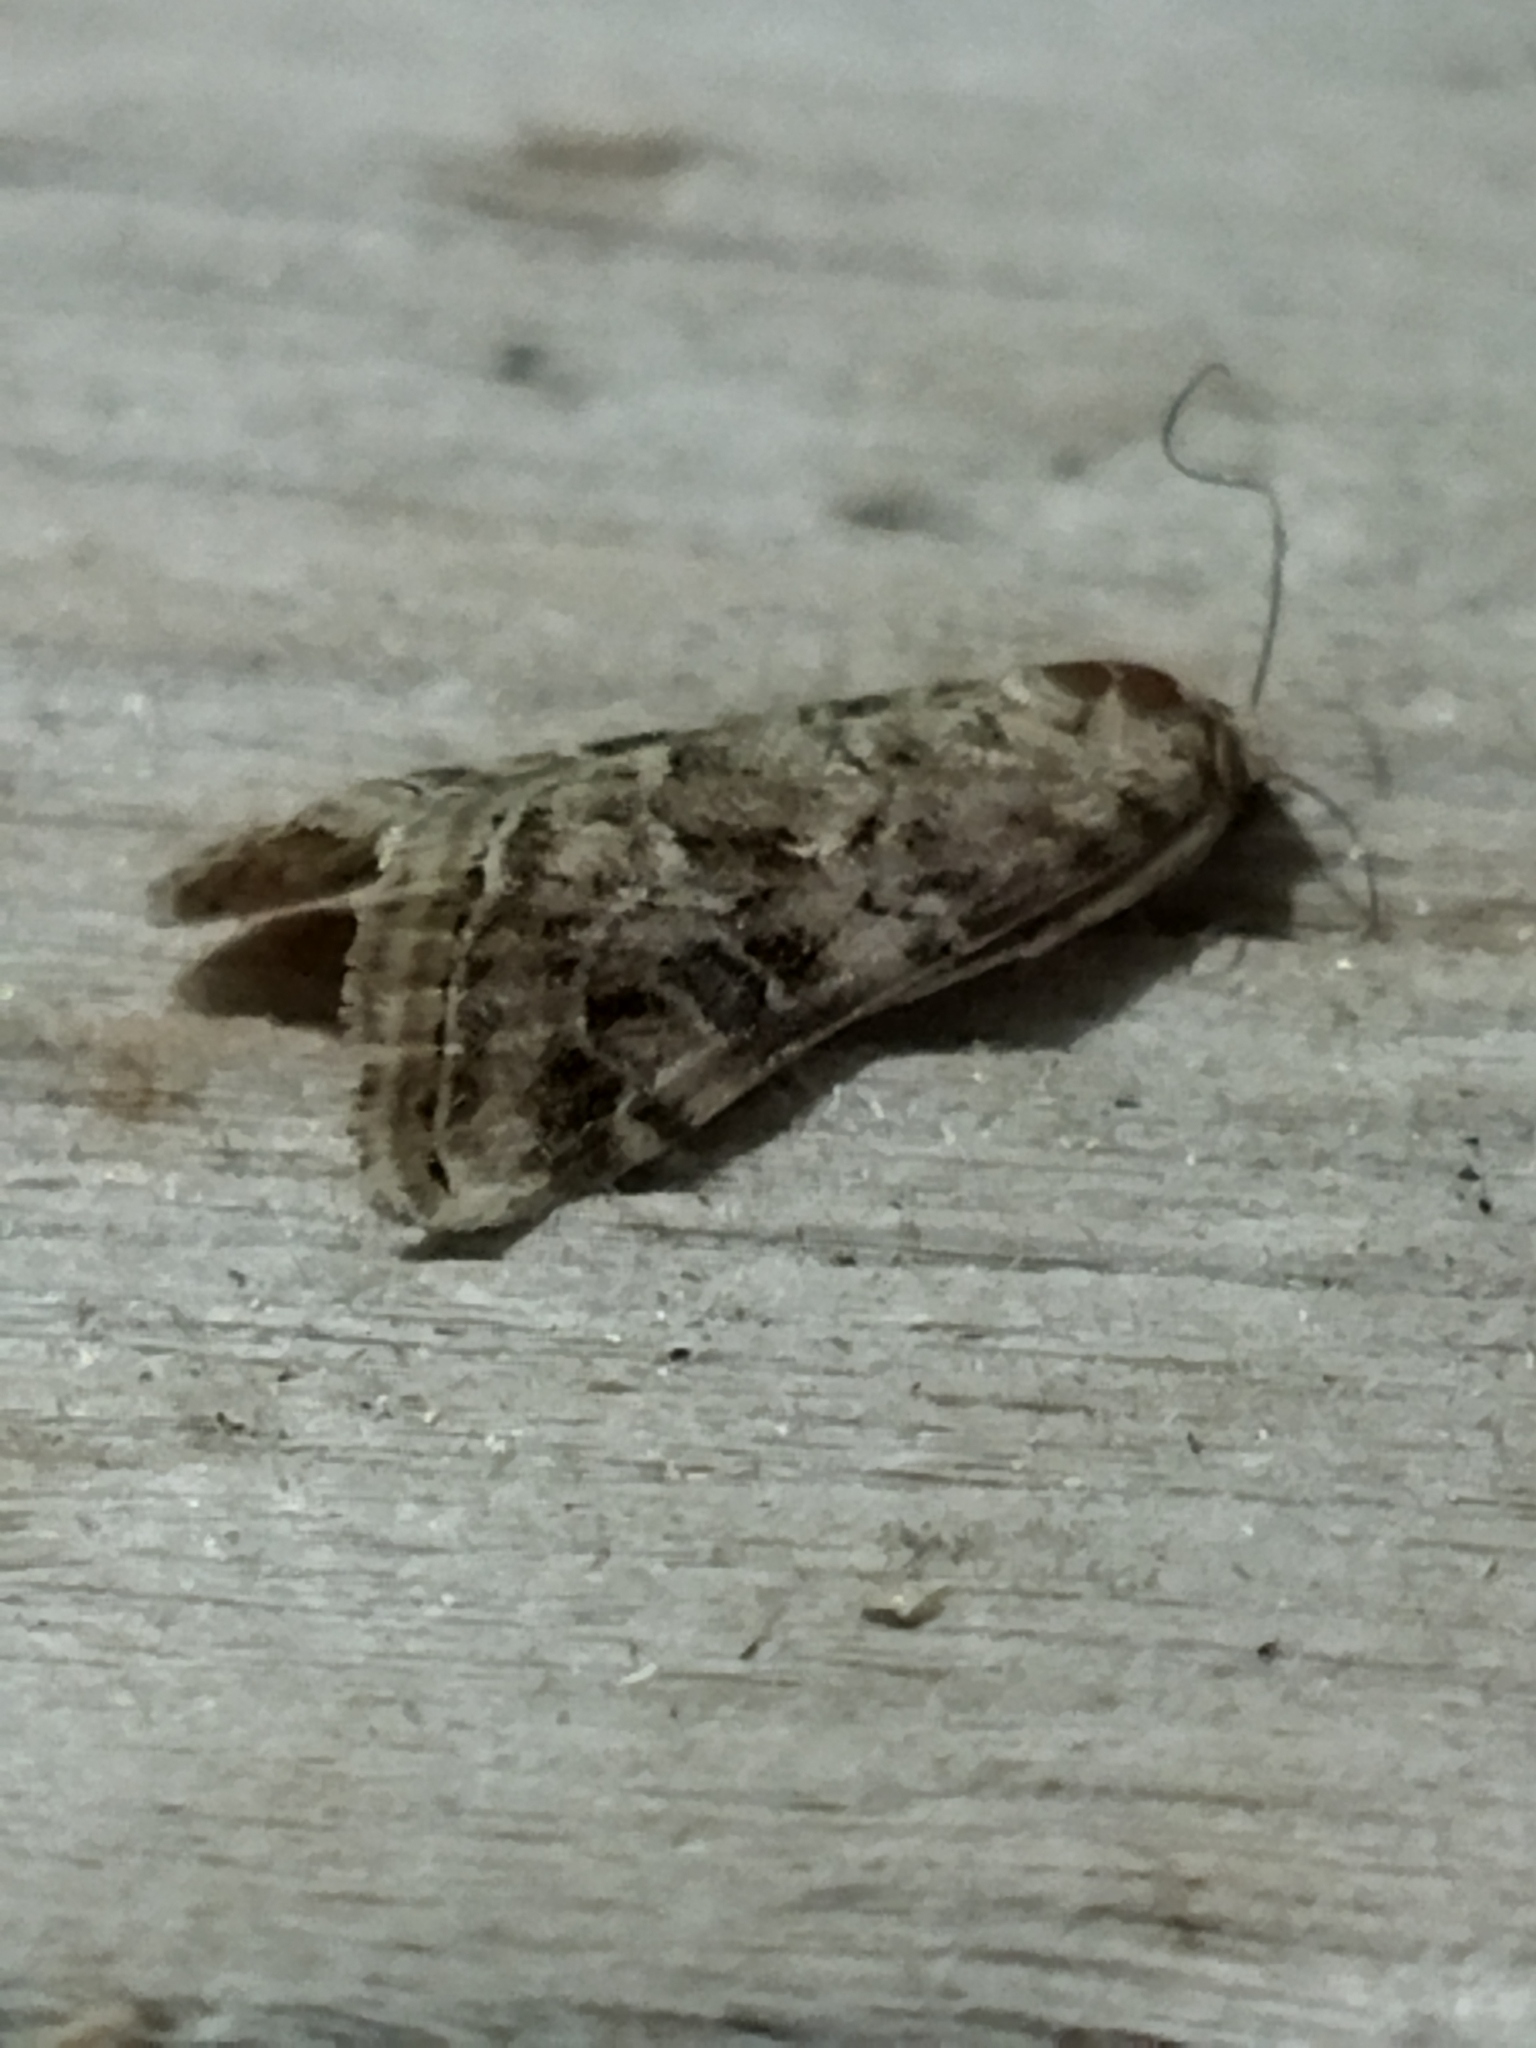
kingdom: Animalia
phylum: Arthropoda
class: Insecta
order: Lepidoptera
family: Crambidae
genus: Hellula
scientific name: Hellula undalis
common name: Cabbage webworm
